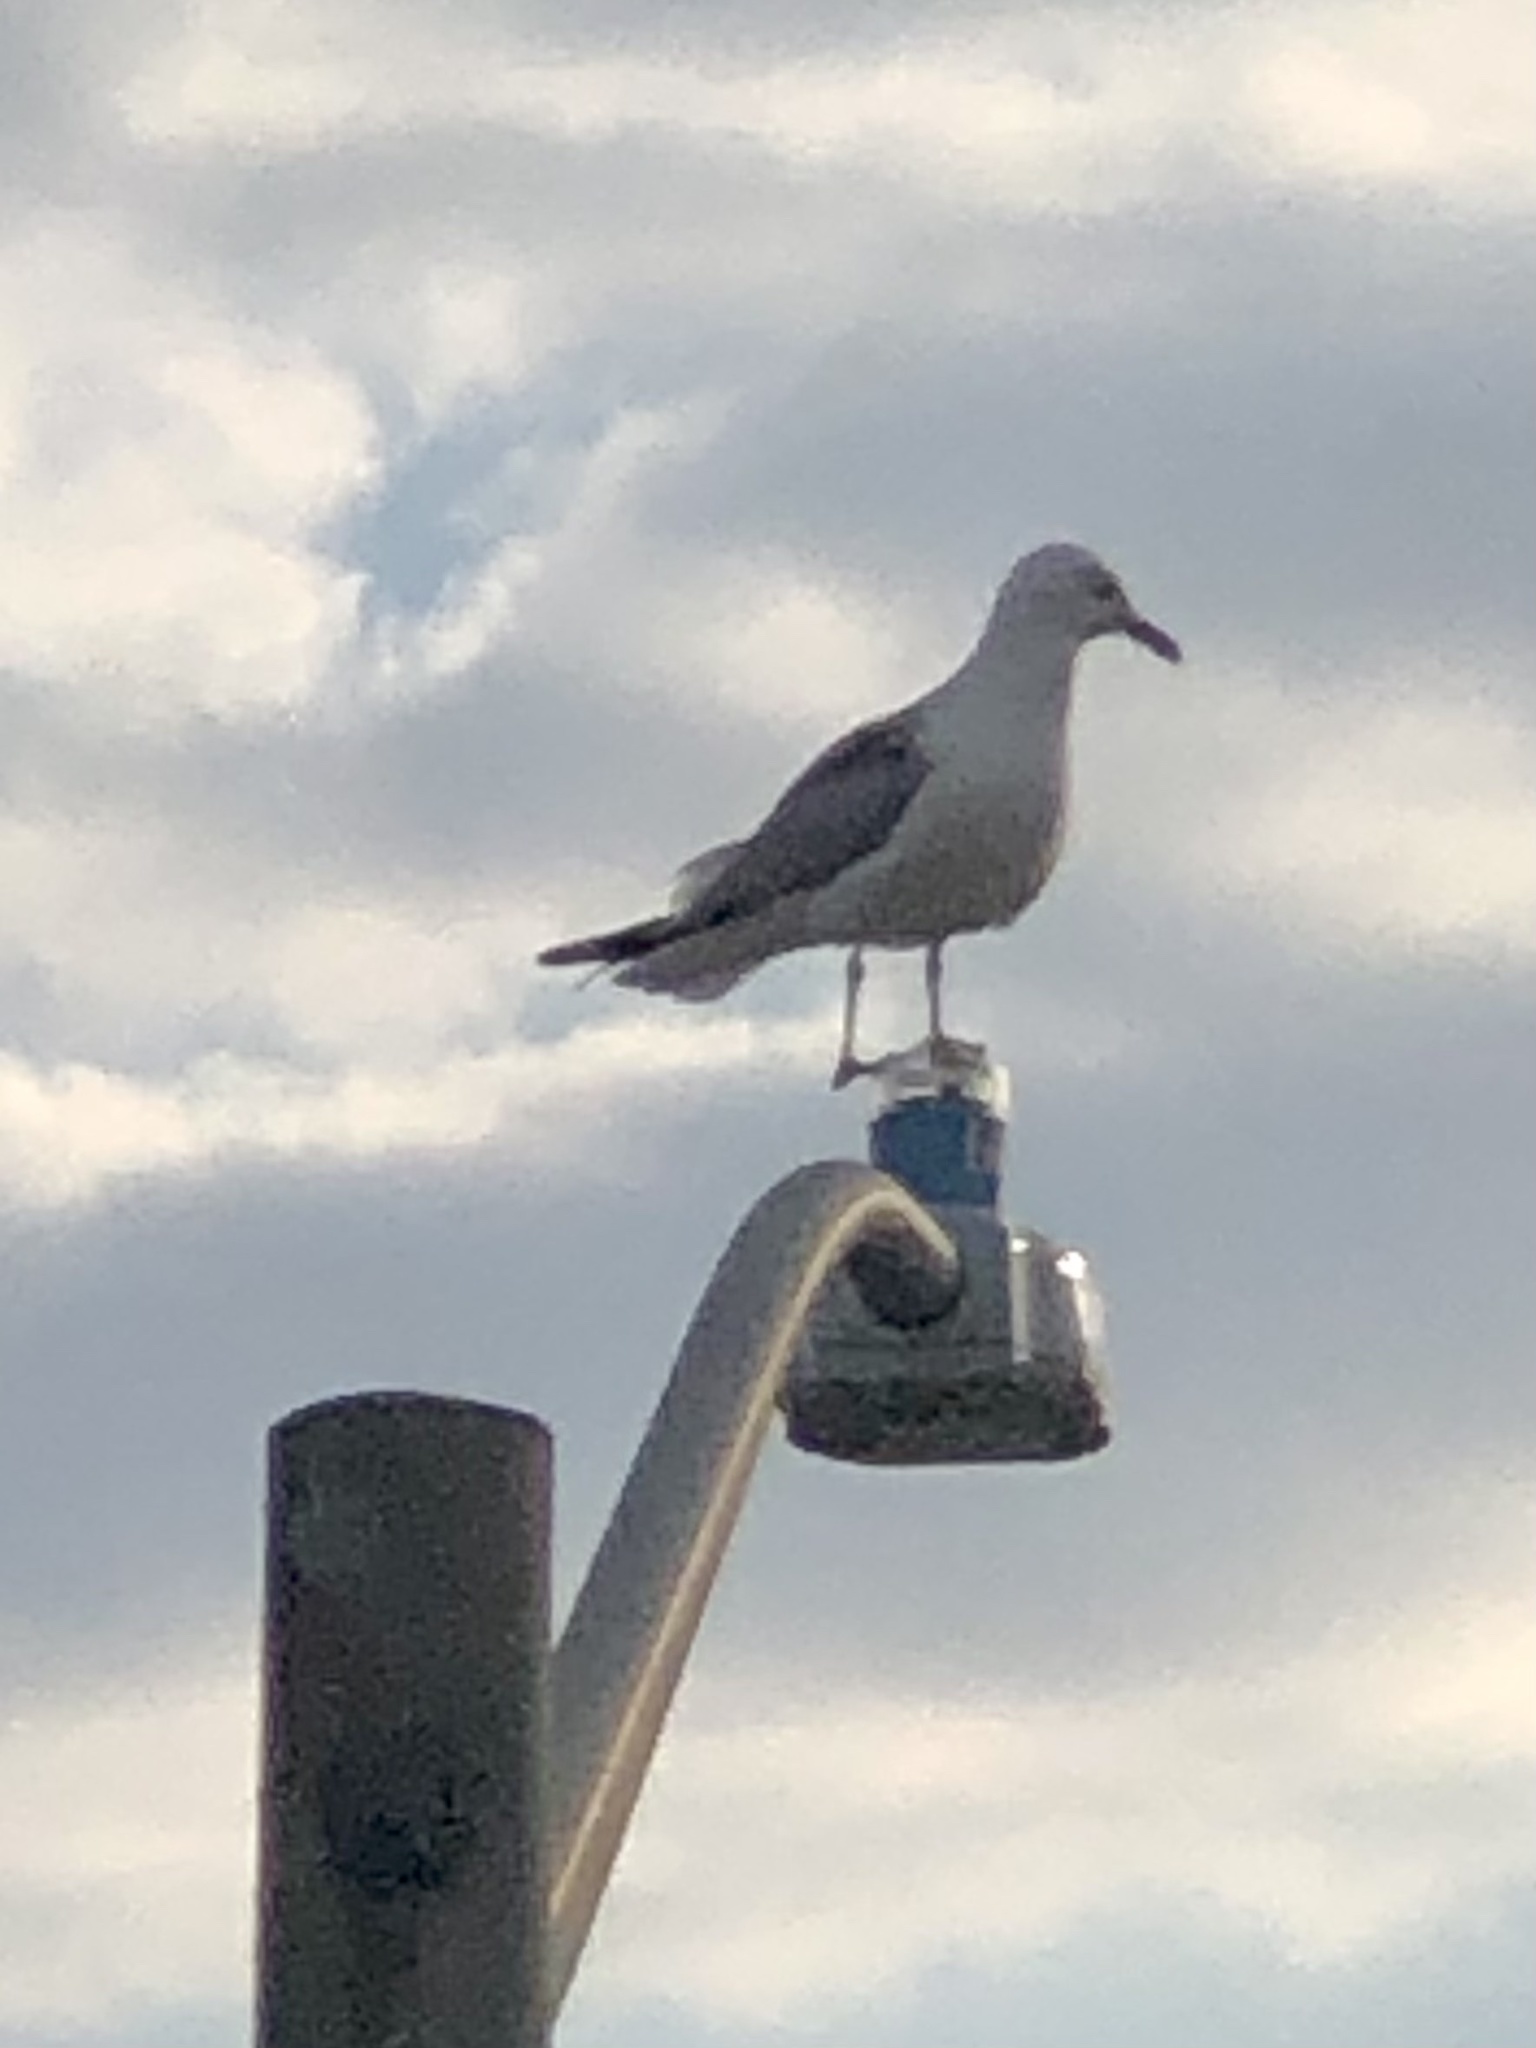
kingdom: Animalia
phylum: Chordata
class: Aves
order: Charadriiformes
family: Laridae
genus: Larus
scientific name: Larus delawarensis
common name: Ring-billed gull
